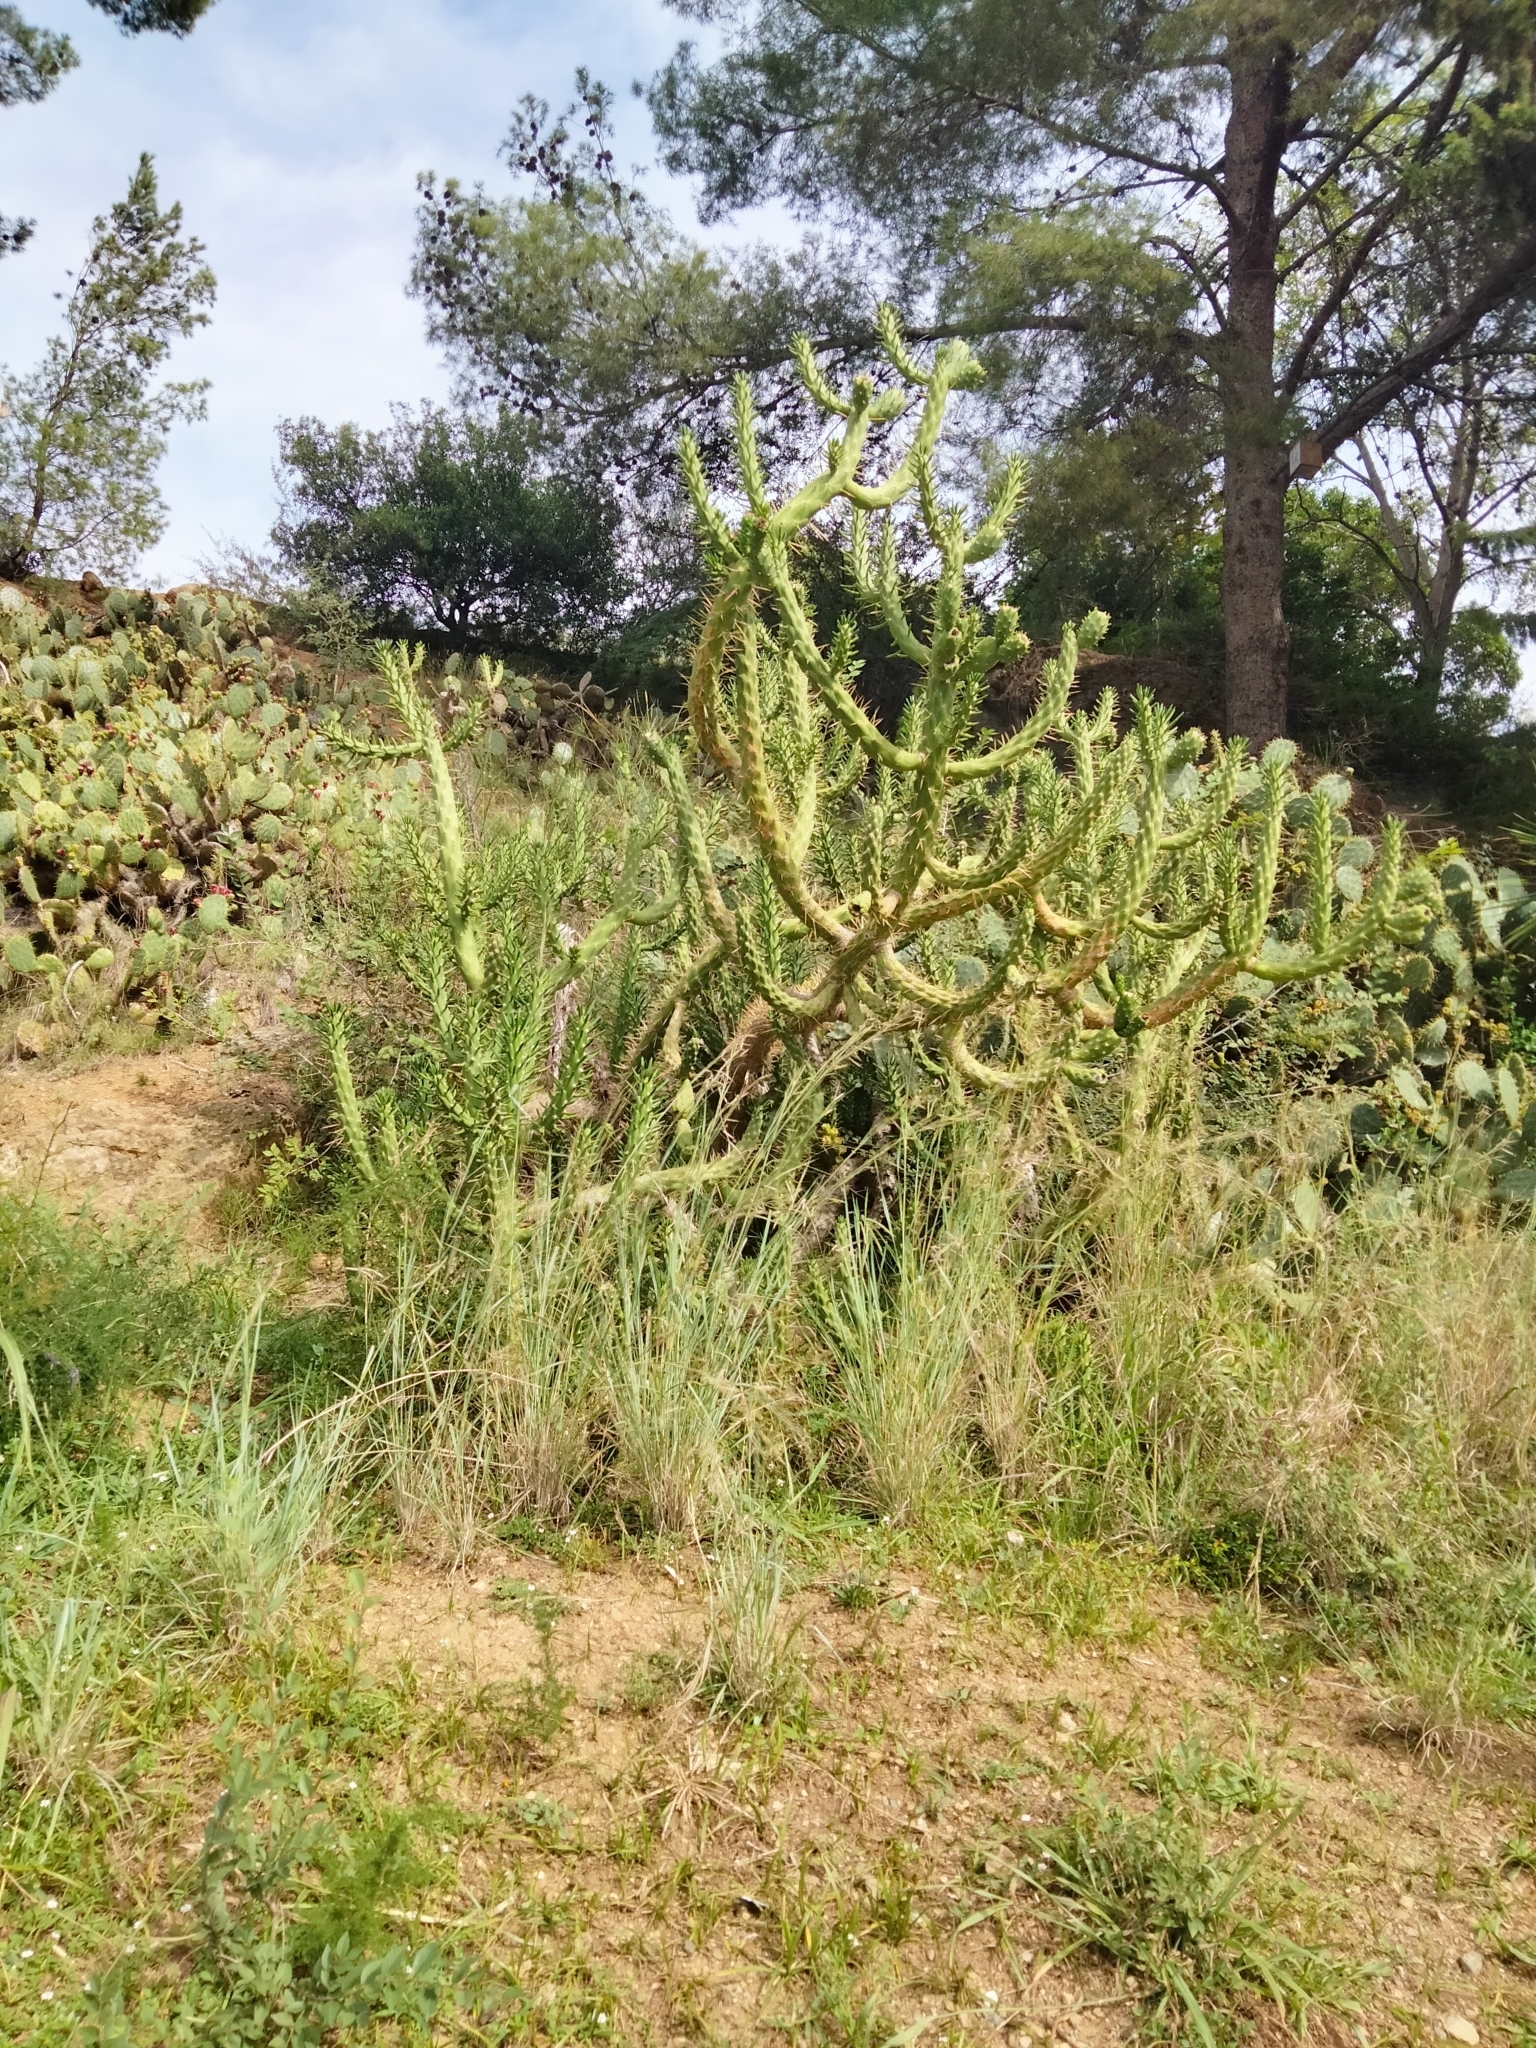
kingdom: Plantae
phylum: Tracheophyta
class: Magnoliopsida
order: Caryophyllales
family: Cactaceae
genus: Austrocylindropuntia
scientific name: Austrocylindropuntia subulata
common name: Eve's needle cactus
